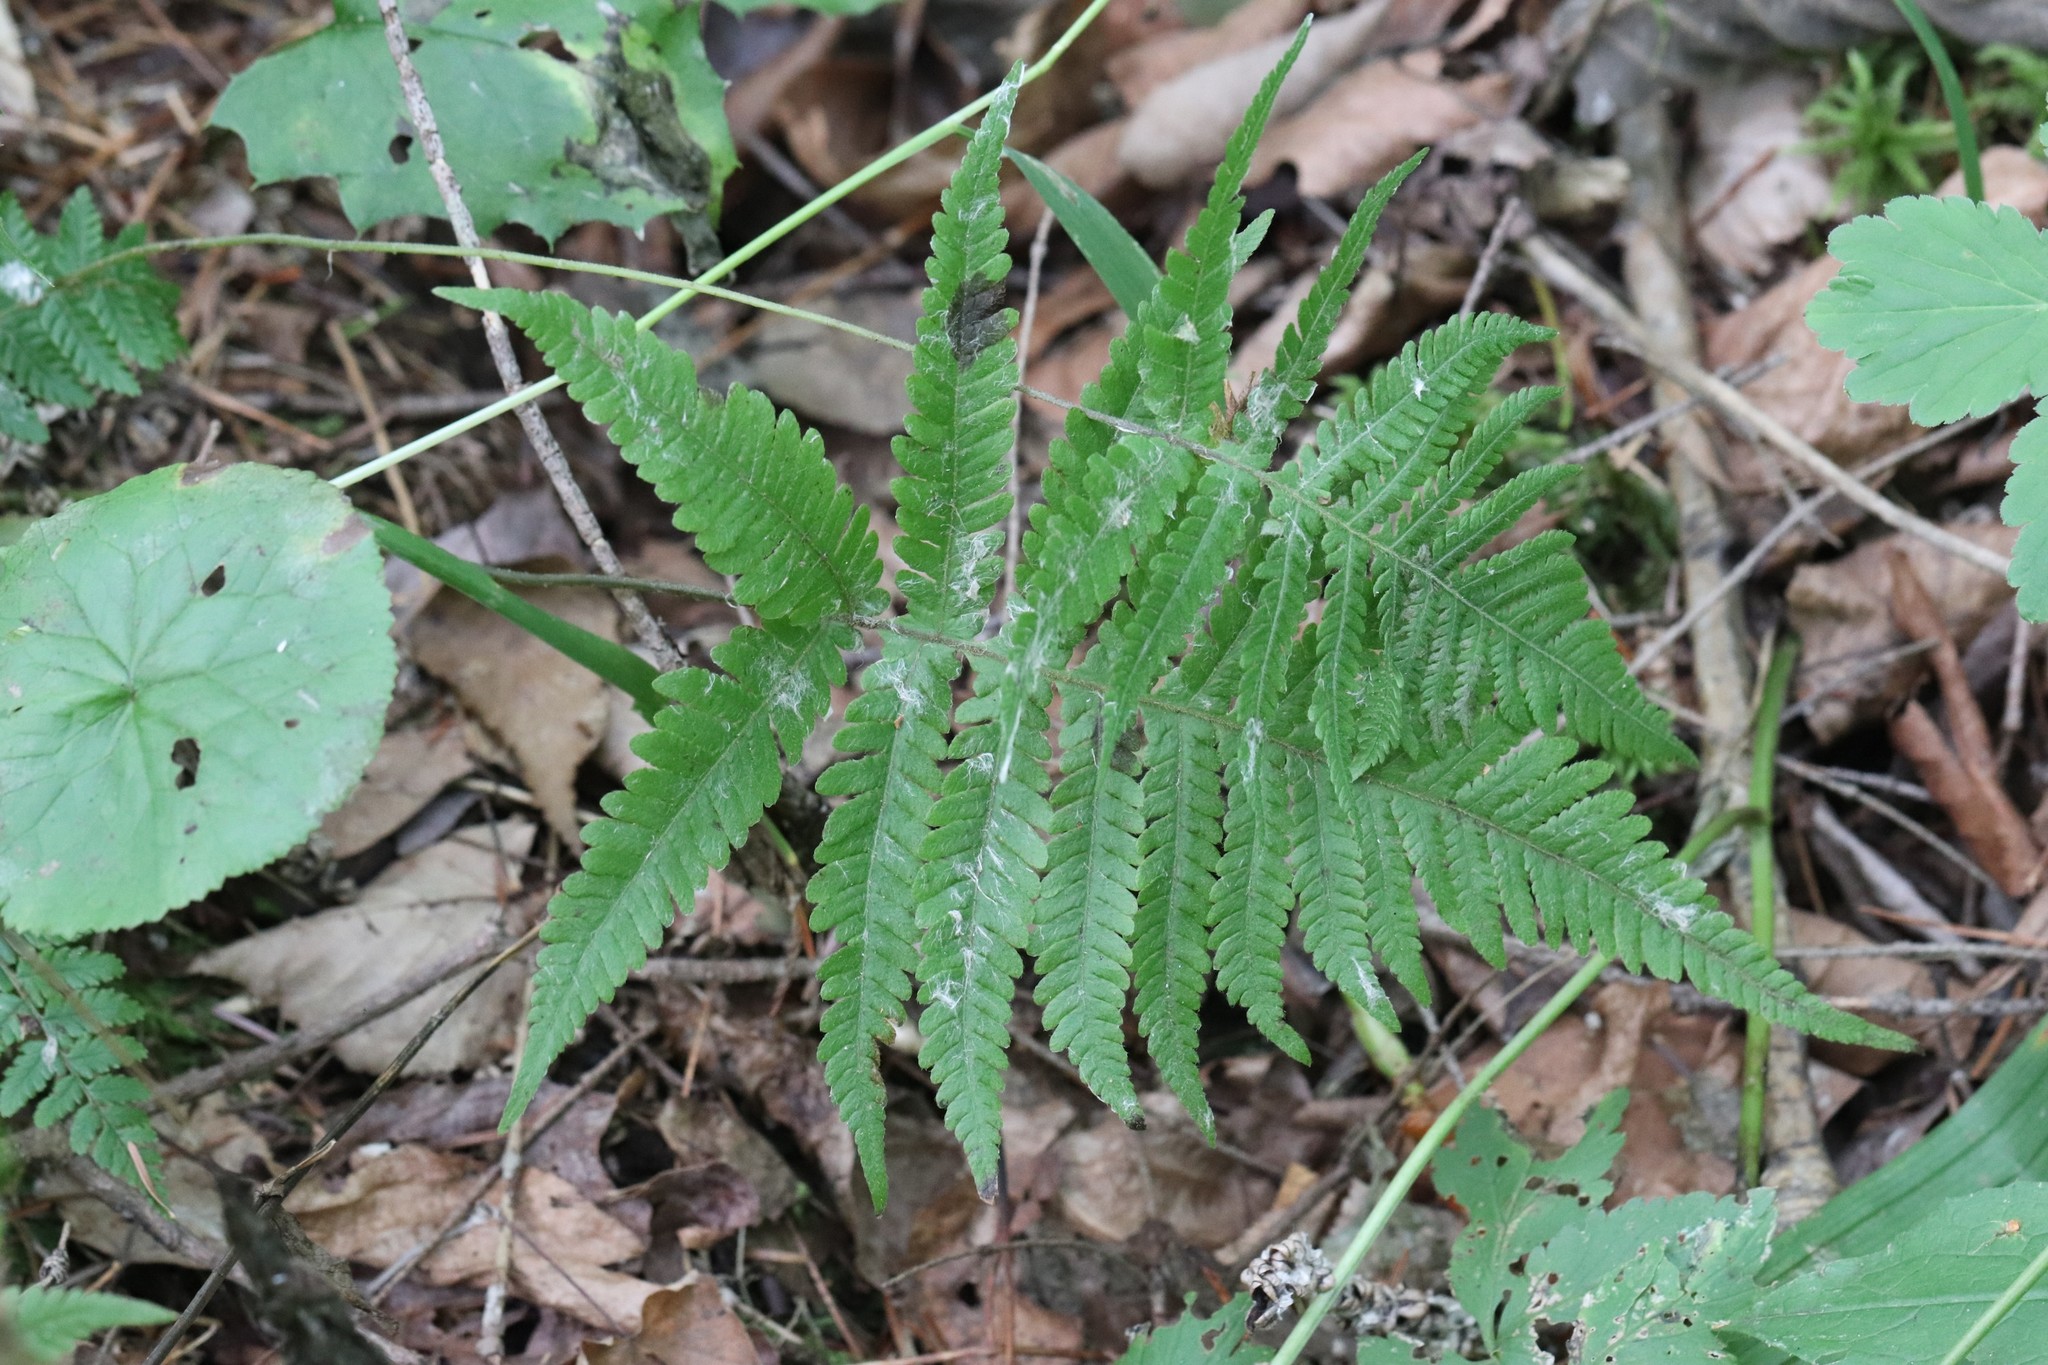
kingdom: Plantae
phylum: Tracheophyta
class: Polypodiopsida
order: Polypodiales
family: Thelypteridaceae
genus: Phegopteris
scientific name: Phegopteris connectilis
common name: Beech fern
